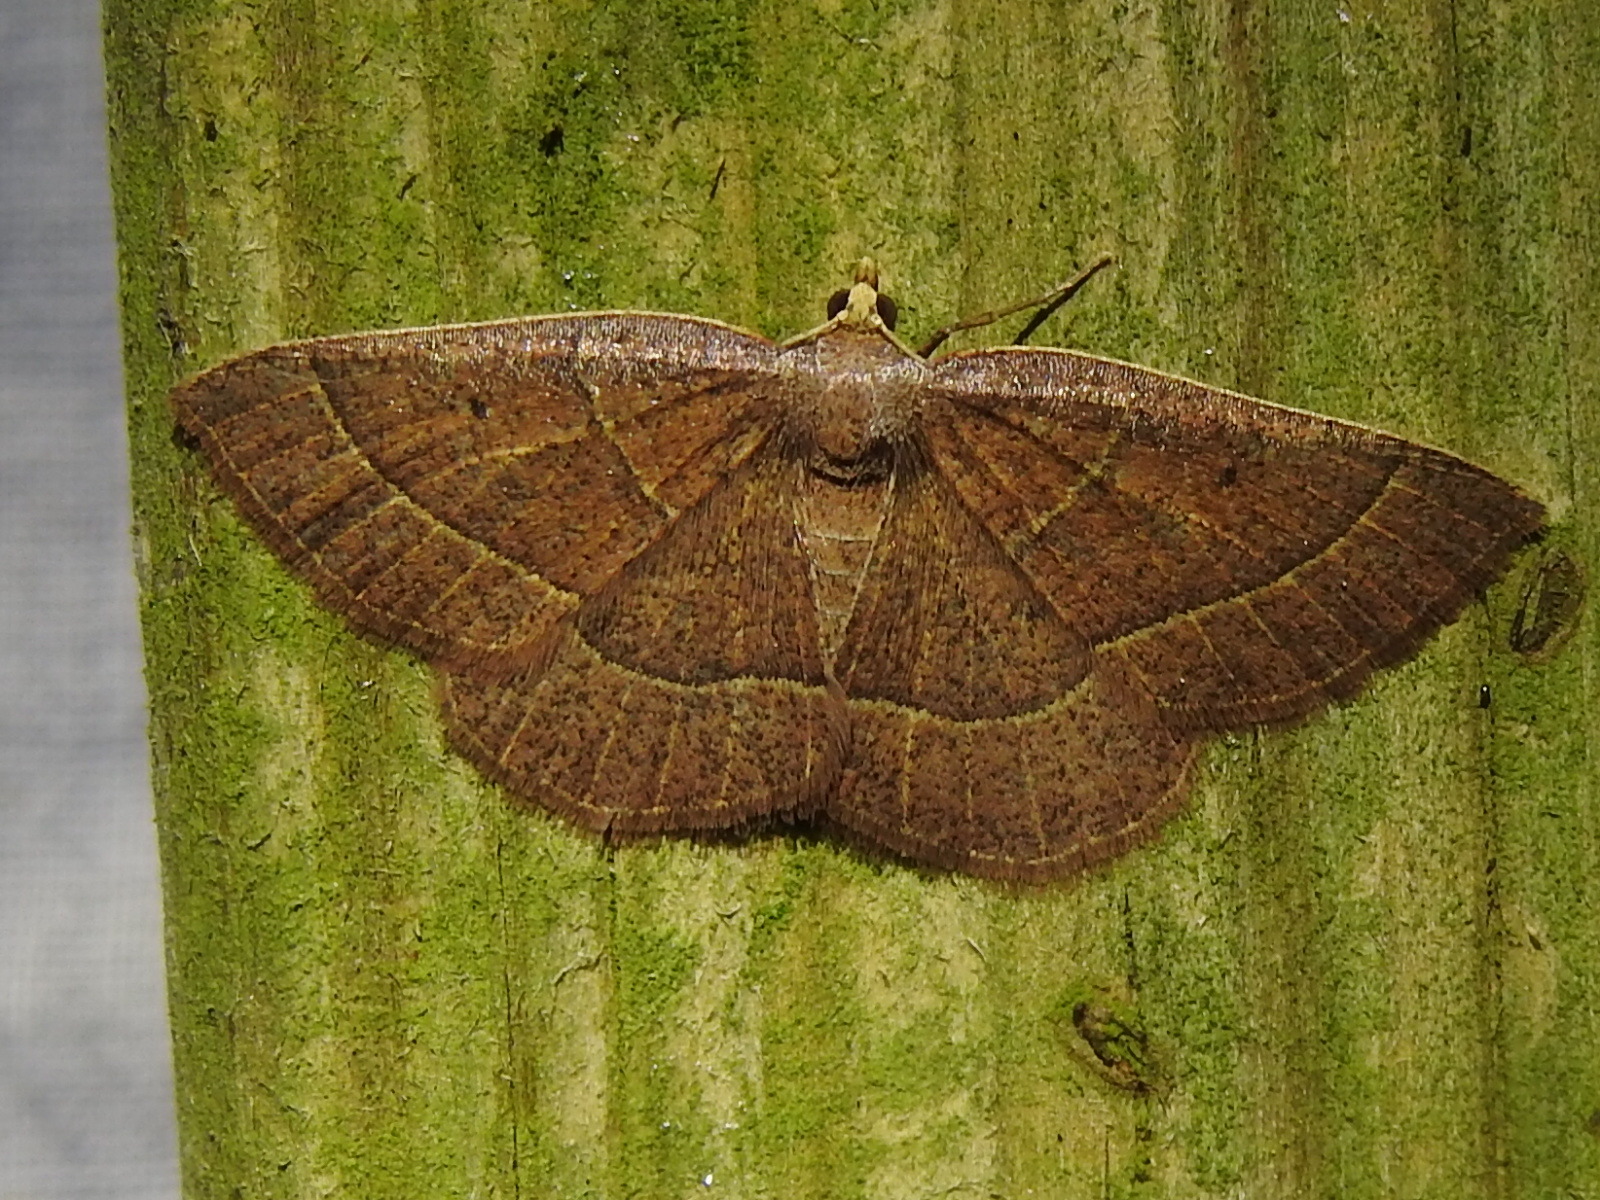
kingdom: Animalia
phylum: Arthropoda
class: Insecta
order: Lepidoptera
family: Geometridae
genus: Episemasia
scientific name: Episemasia cervinaria
